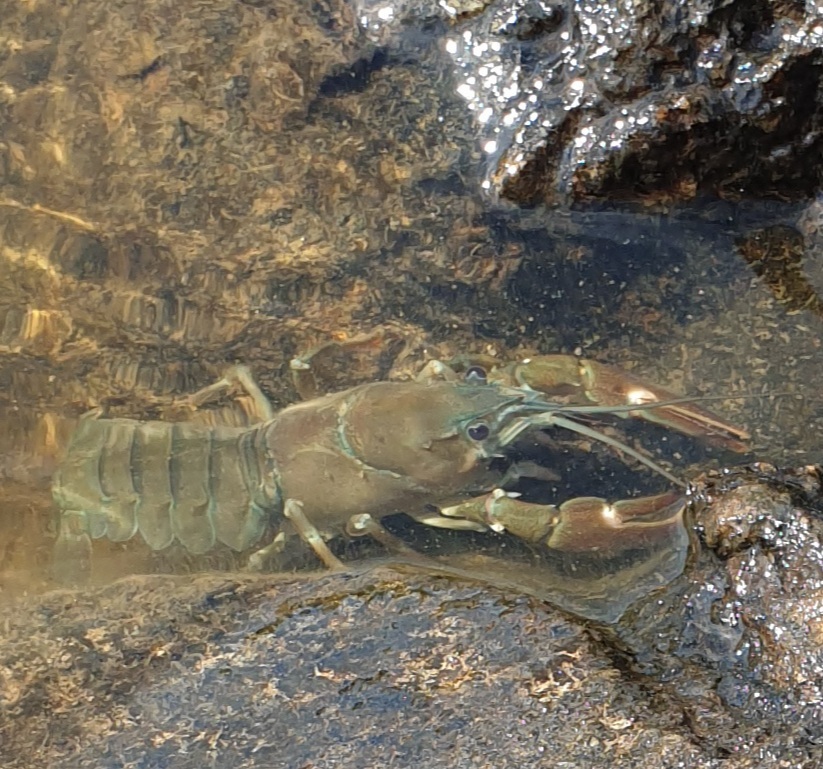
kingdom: Animalia
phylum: Arthropoda
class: Malacostraca
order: Decapoda
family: Astacidae
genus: Pacifastacus
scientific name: Pacifastacus leniusculus
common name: Signal crayfish
